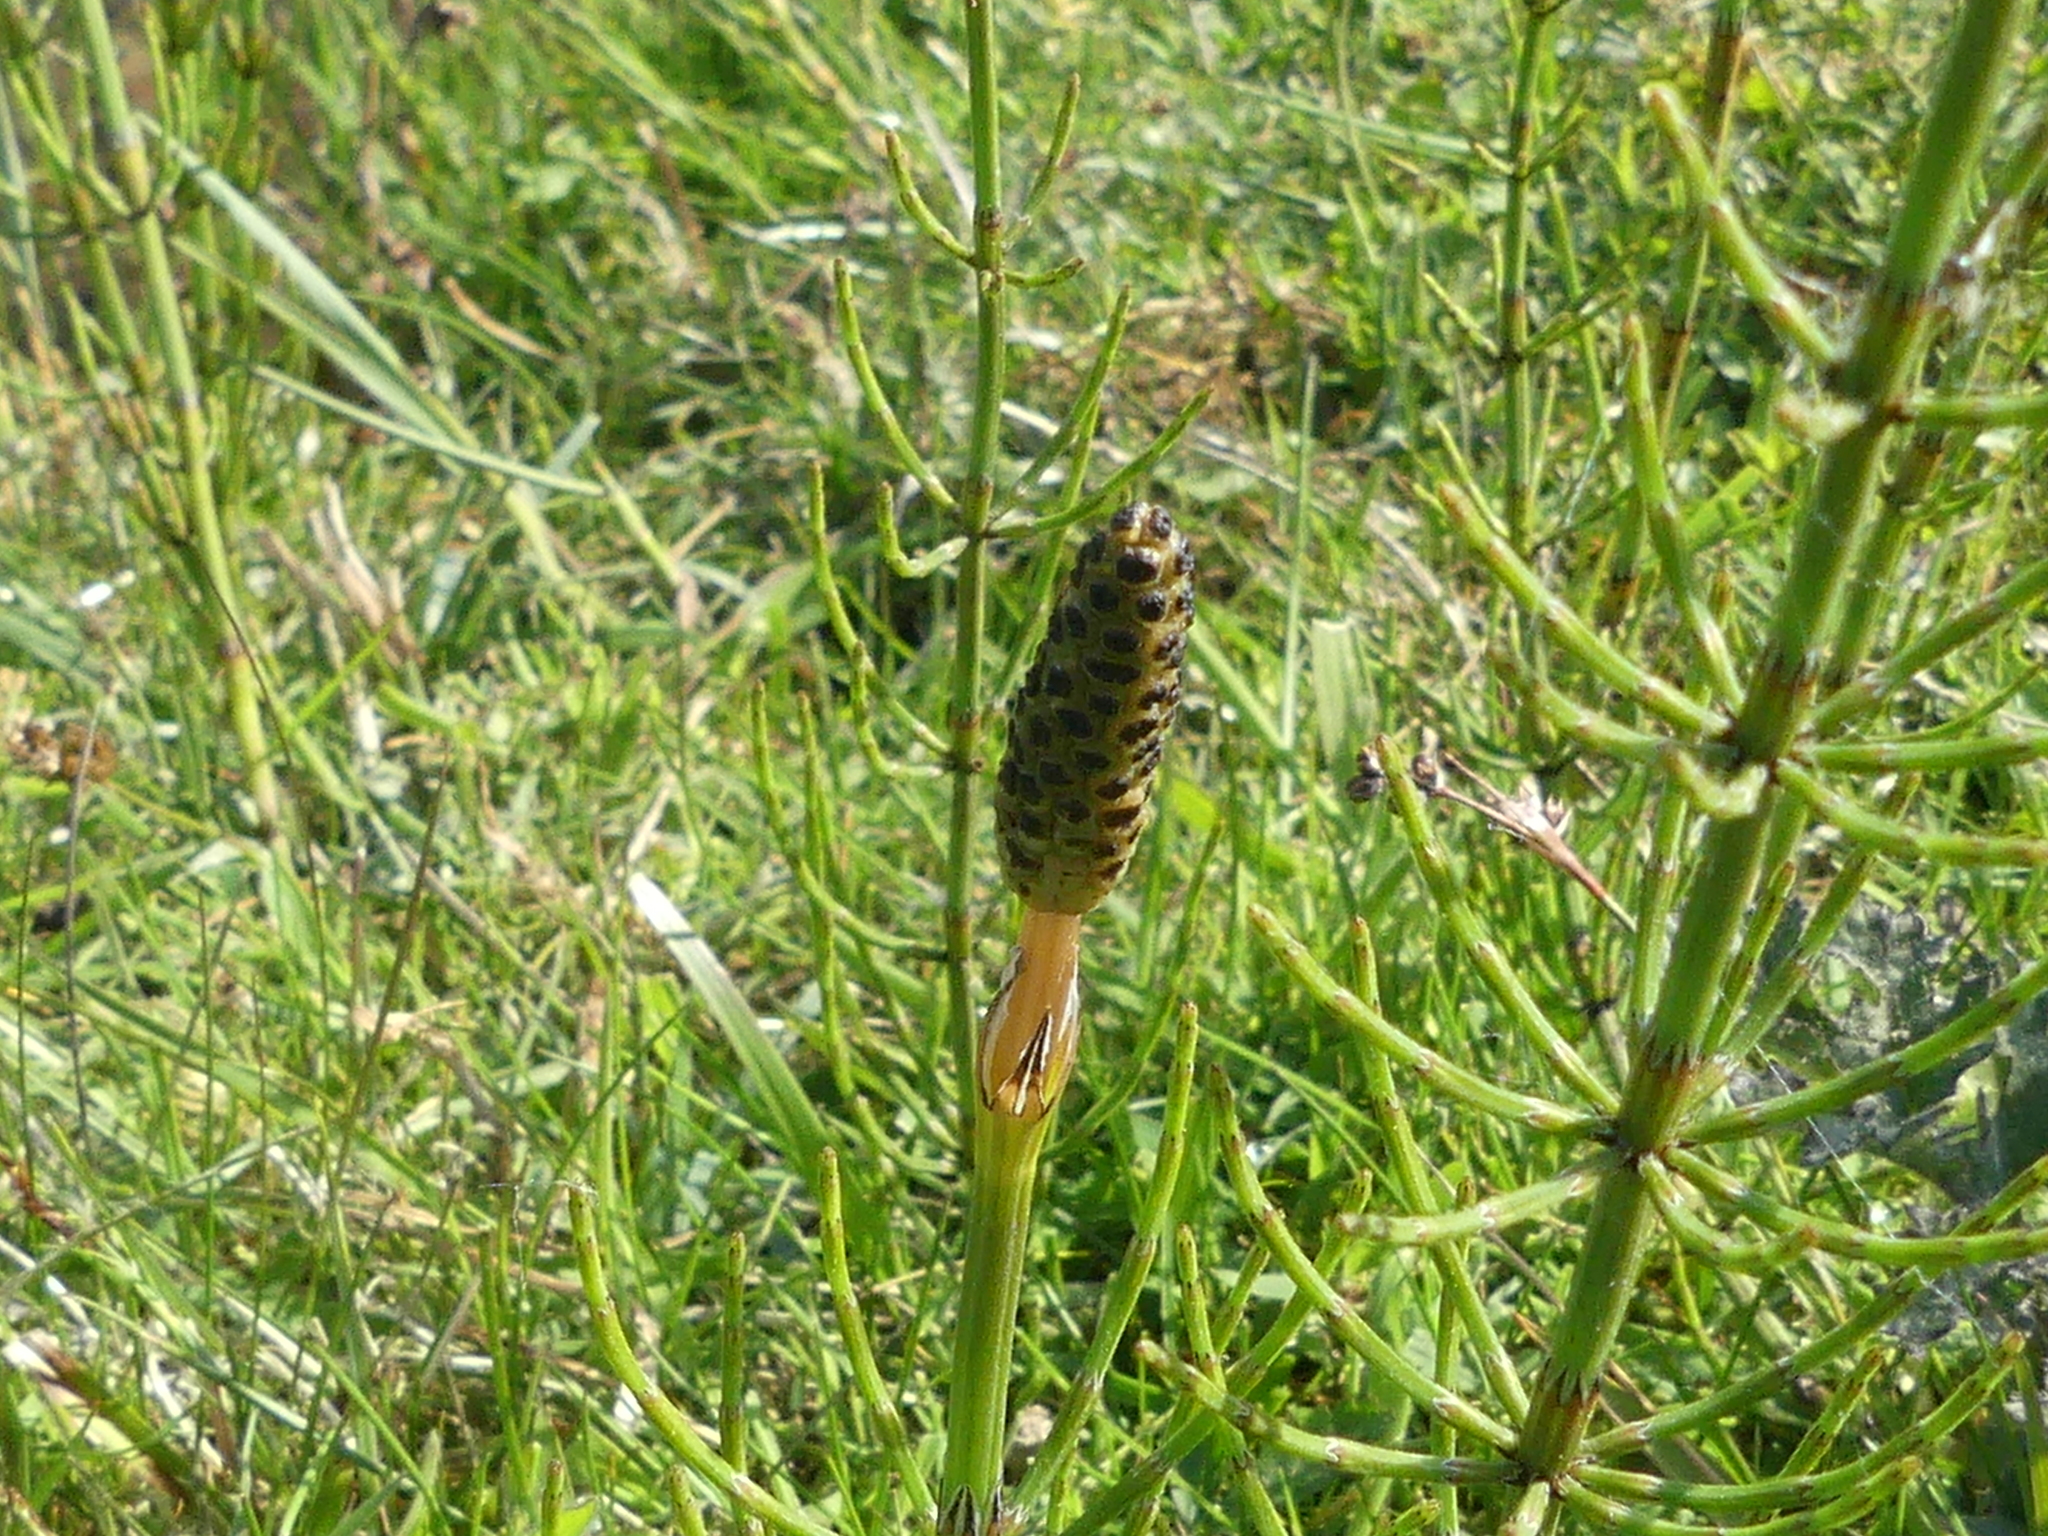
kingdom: Plantae
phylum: Tracheophyta
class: Polypodiopsida
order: Equisetales
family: Equisetaceae
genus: Equisetum
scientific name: Equisetum palustre
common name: Marsh horsetail
